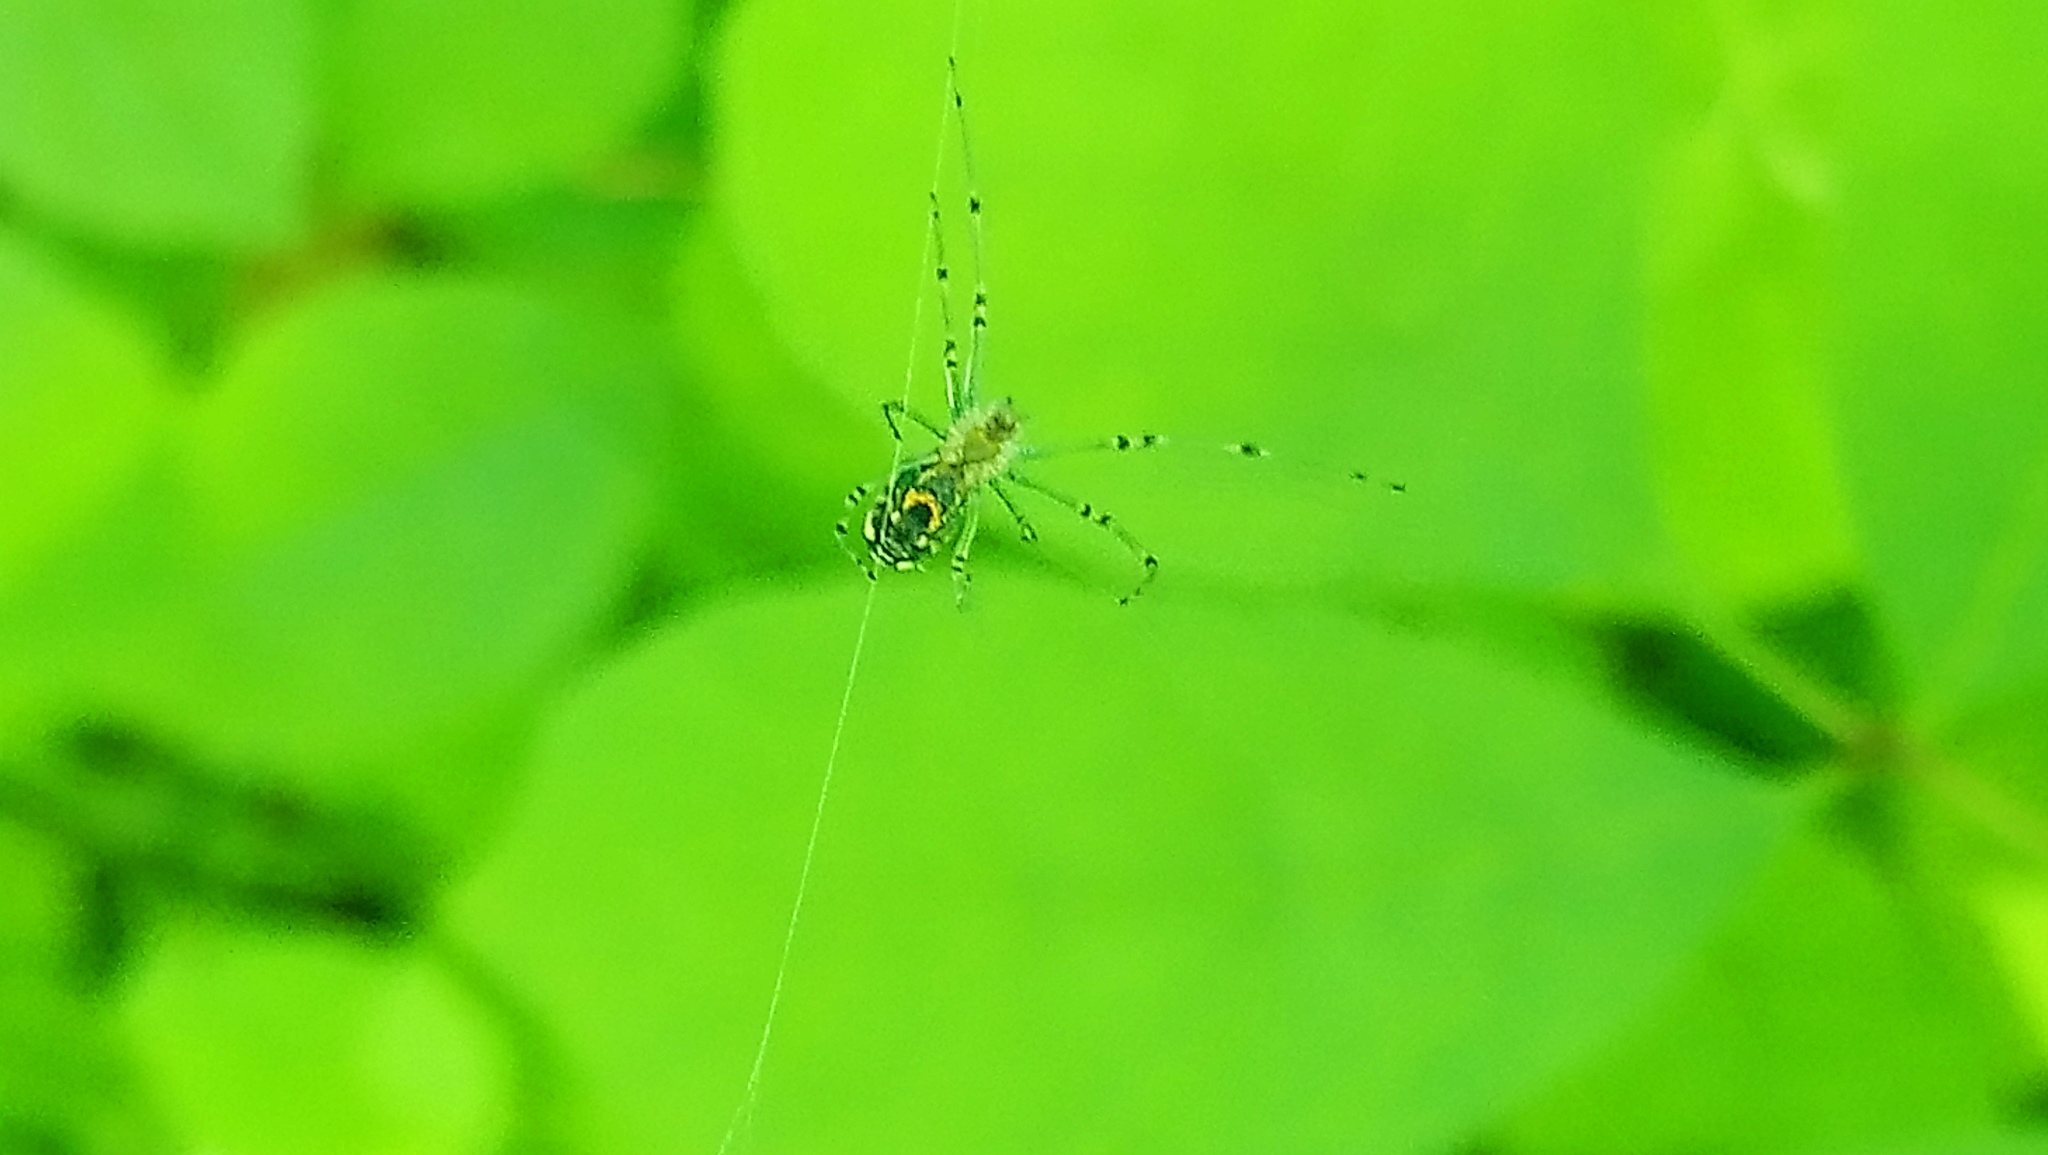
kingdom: Animalia
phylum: Arthropoda
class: Arachnida
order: Araneae
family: Tetragnathidae
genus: Leucauge
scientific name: Leucauge venusta
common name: Longjawed orb weavers
